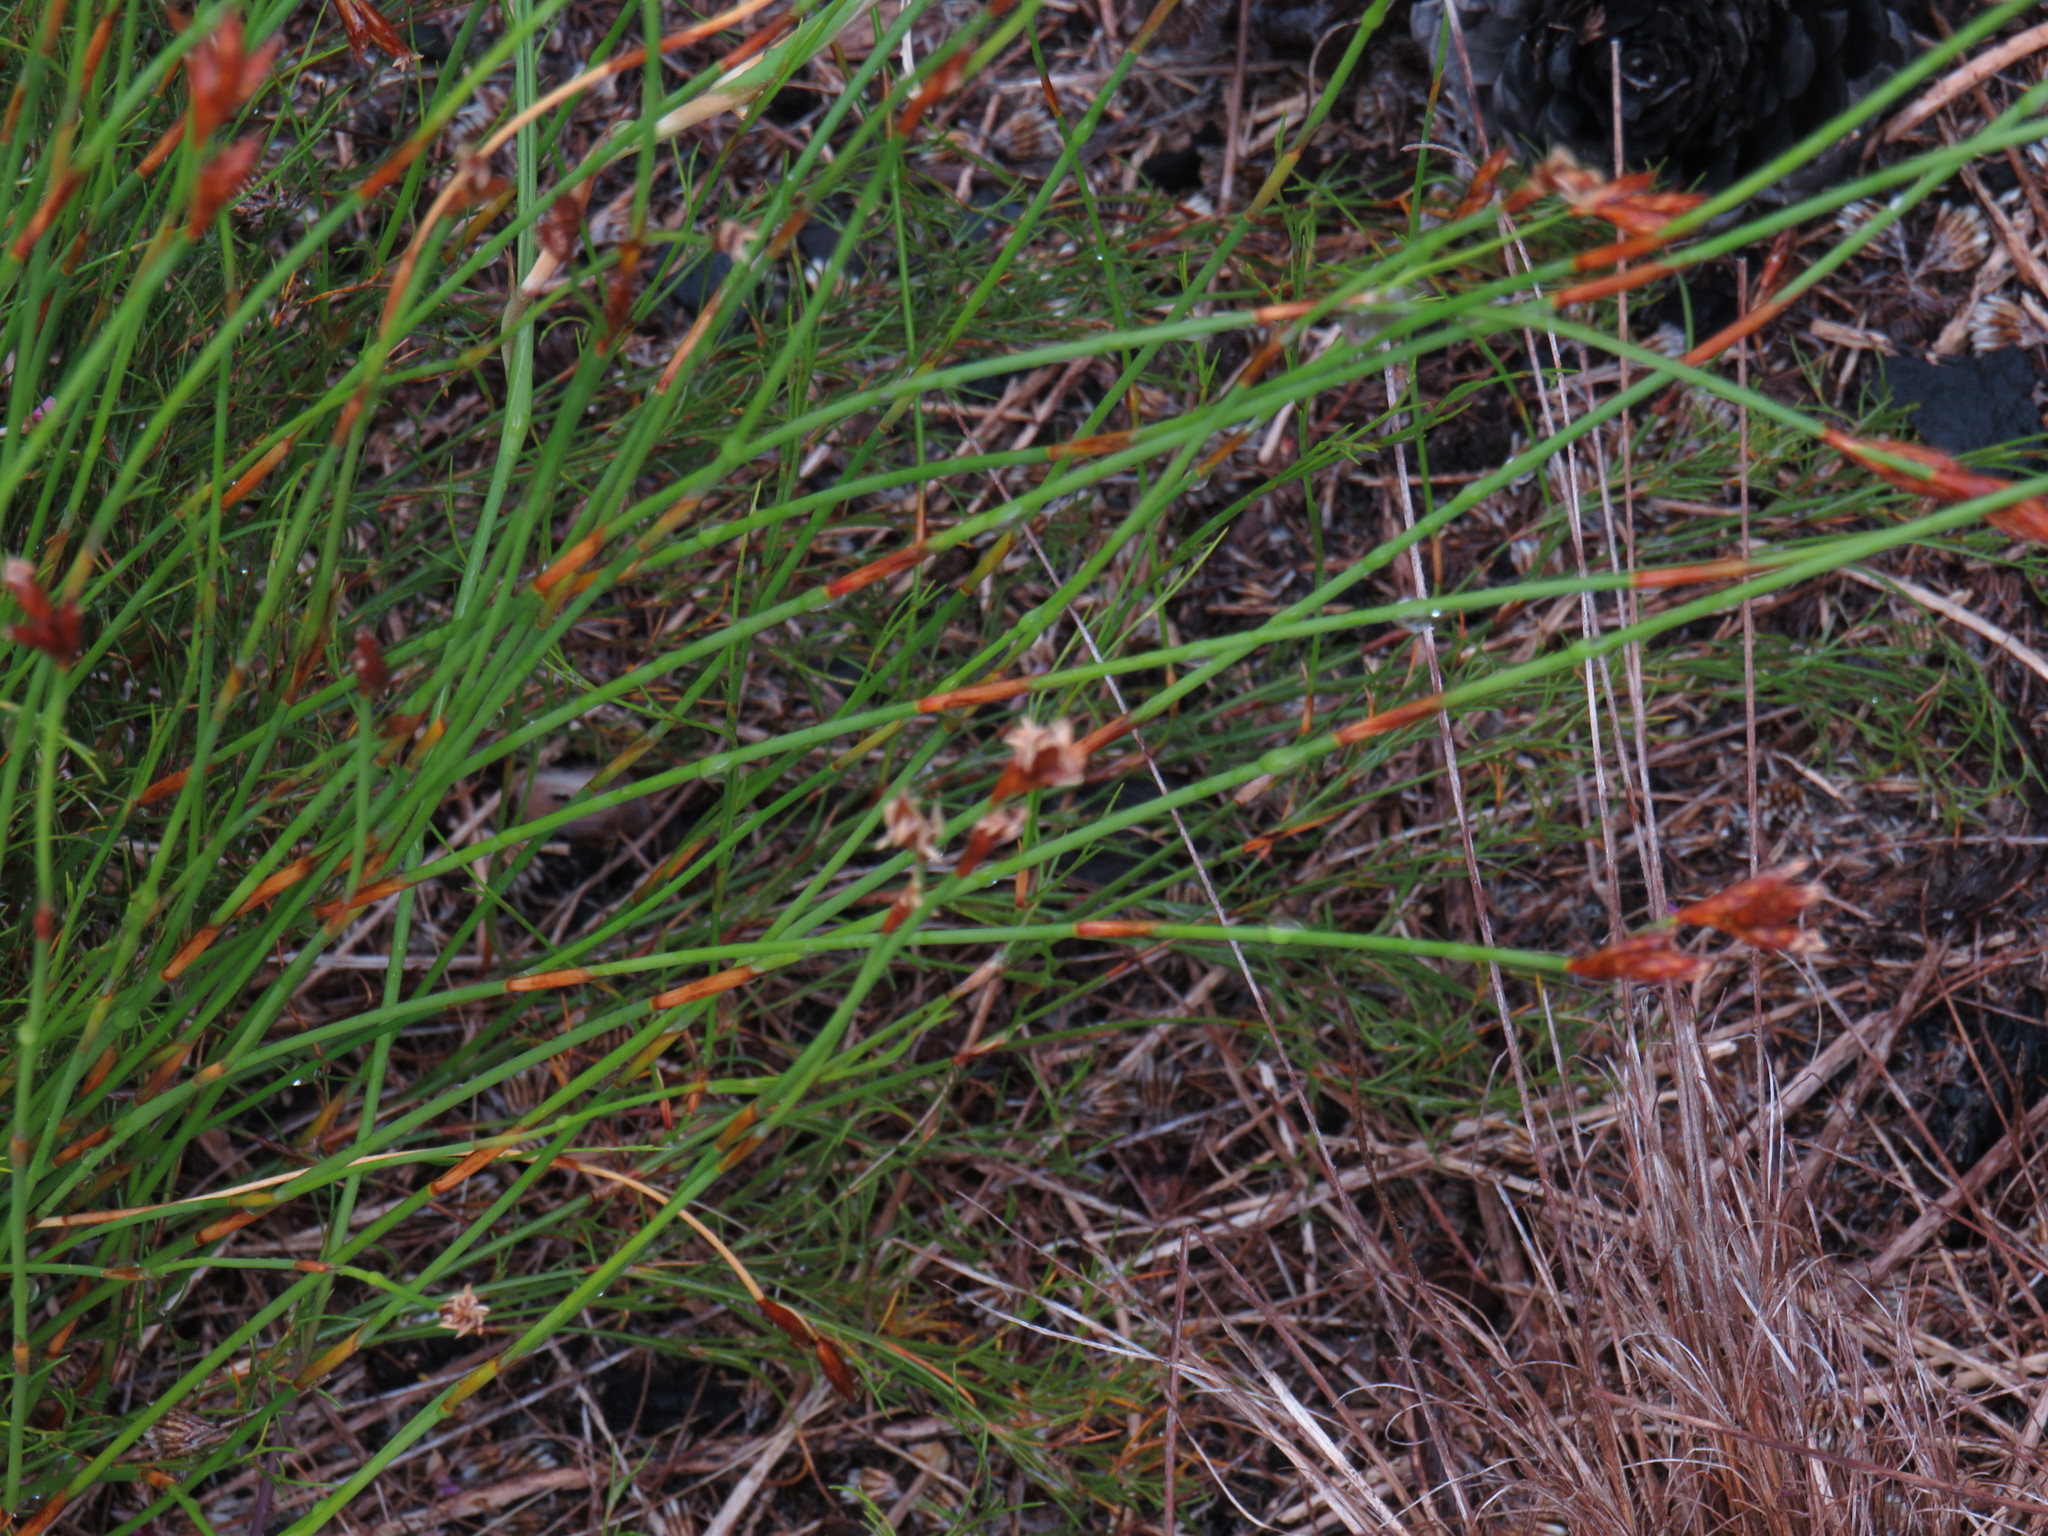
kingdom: Plantae
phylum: Tracheophyta
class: Liliopsida
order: Poales
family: Restionaceae
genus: Restio
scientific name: Restio capensis
